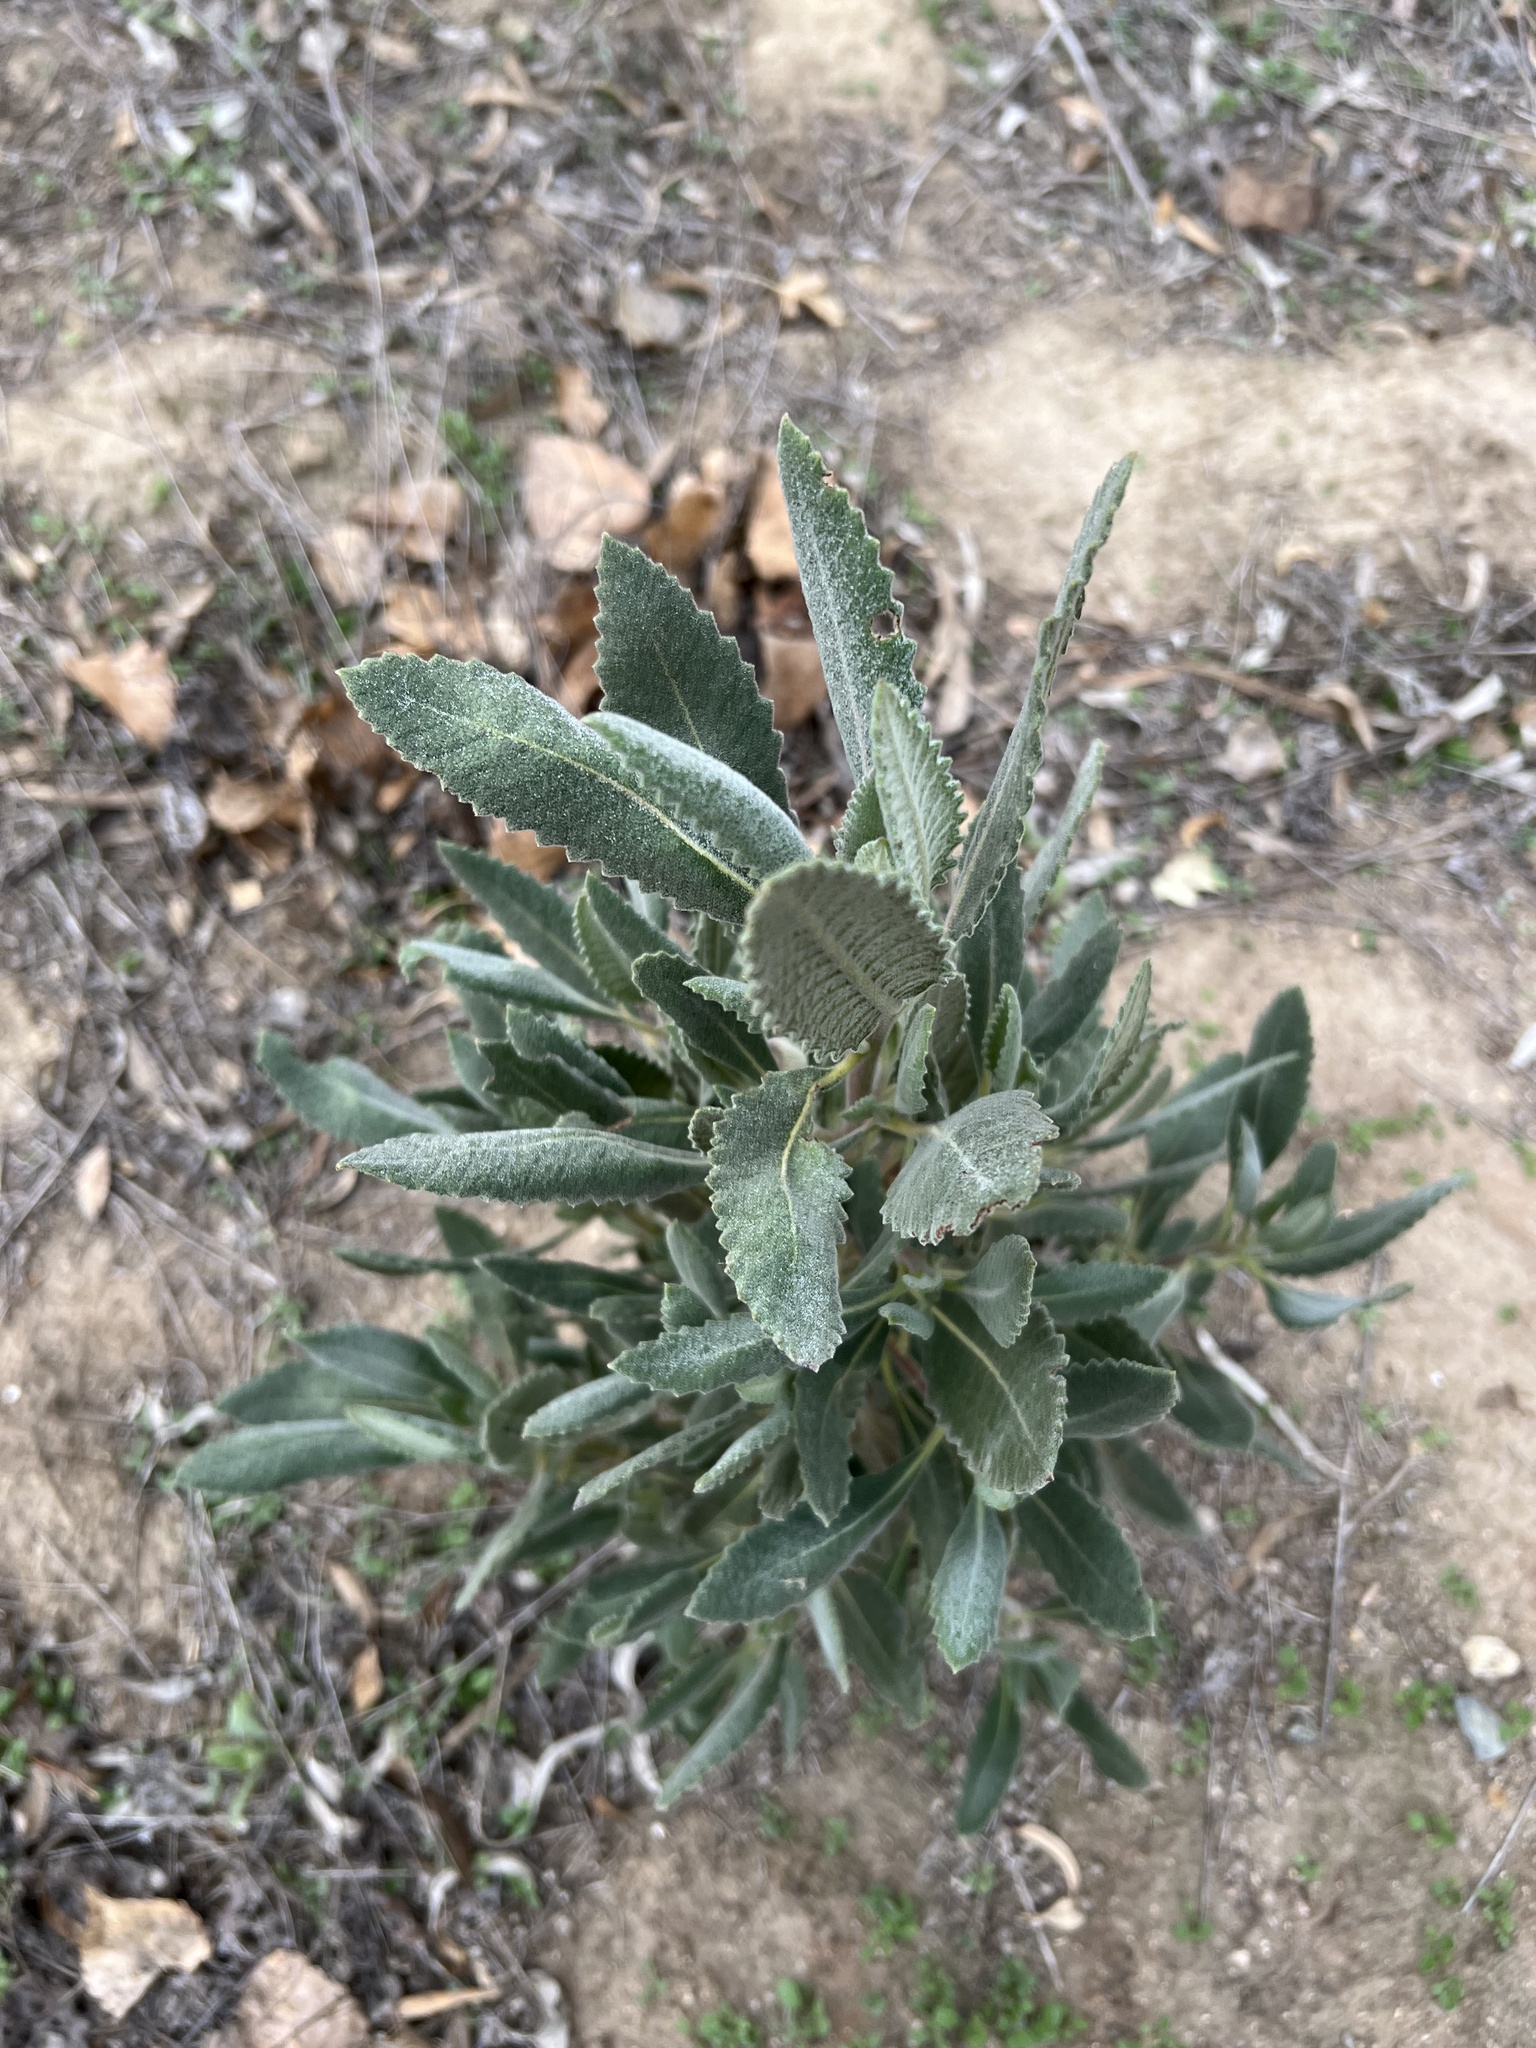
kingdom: Plantae
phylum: Tracheophyta
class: Magnoliopsida
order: Boraginales
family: Namaceae
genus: Eriodictyon
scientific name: Eriodictyon crassifolium
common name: Thick-leaf yerba-santa
